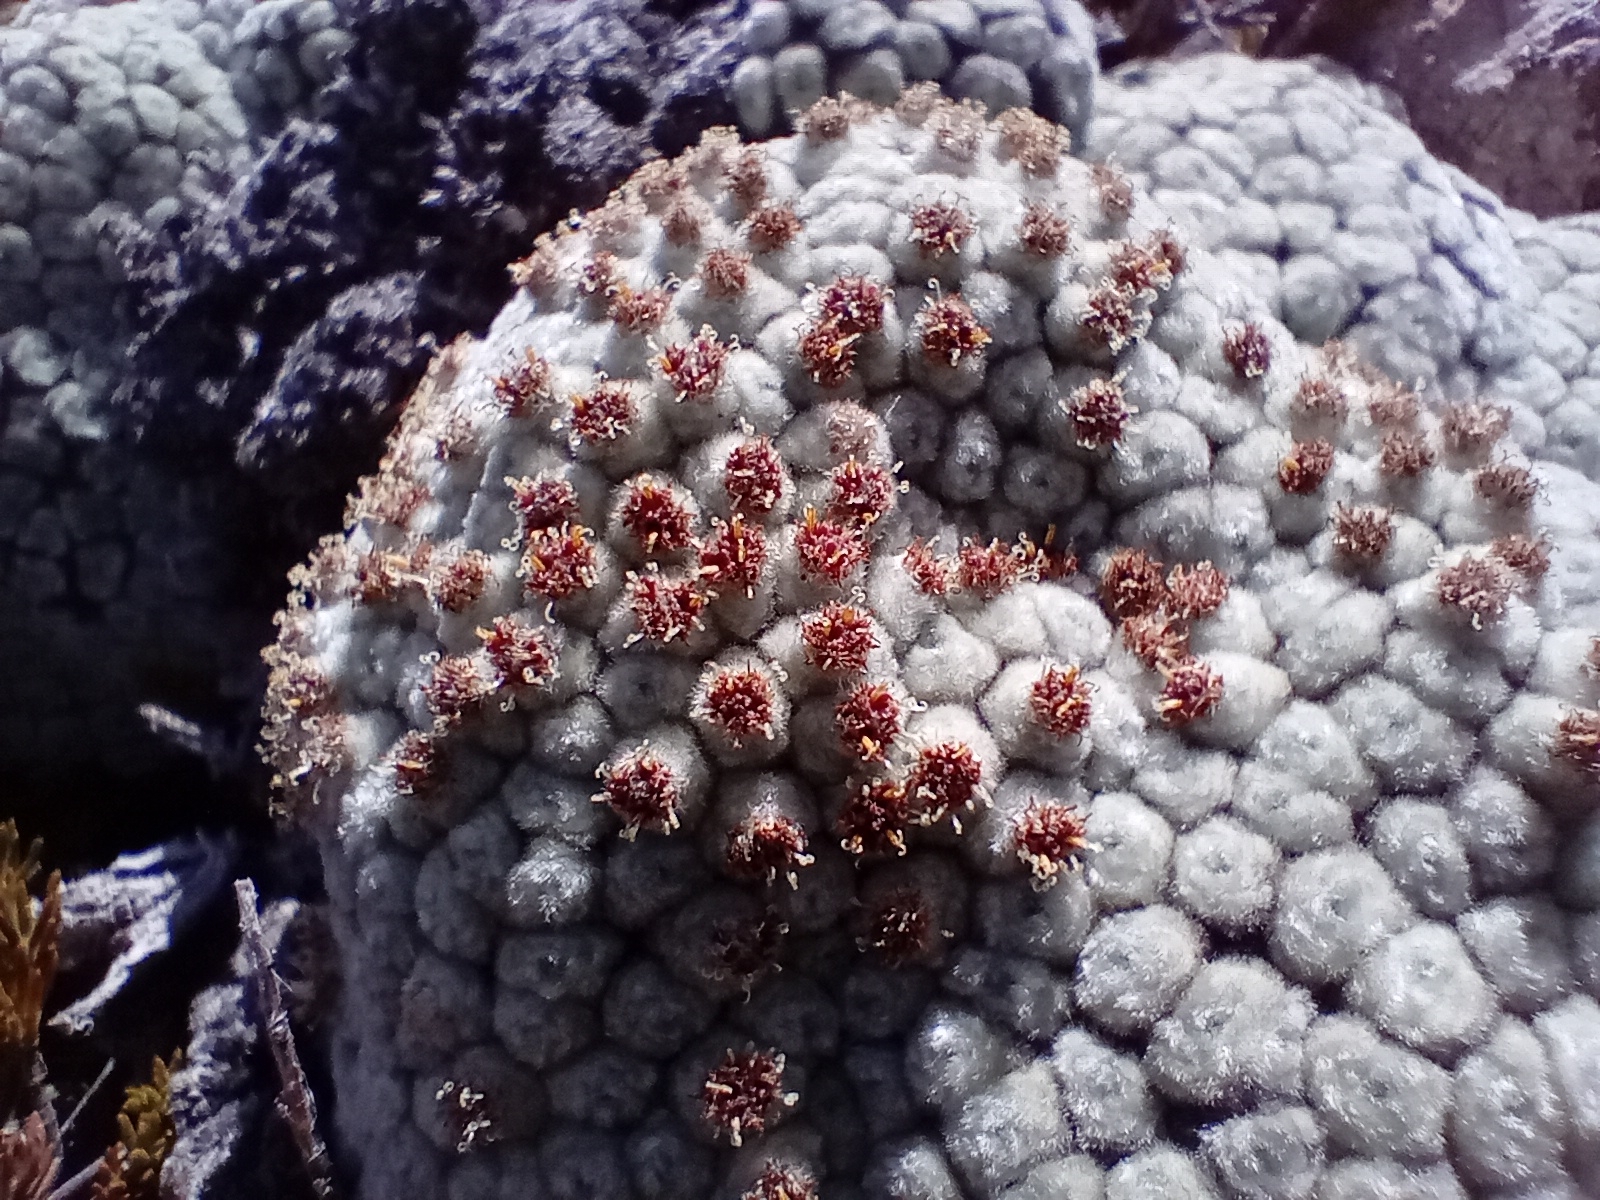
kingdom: Plantae
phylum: Tracheophyta
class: Magnoliopsida
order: Asterales
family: Asteraceae
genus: Raoulia
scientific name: Raoulia eximia
